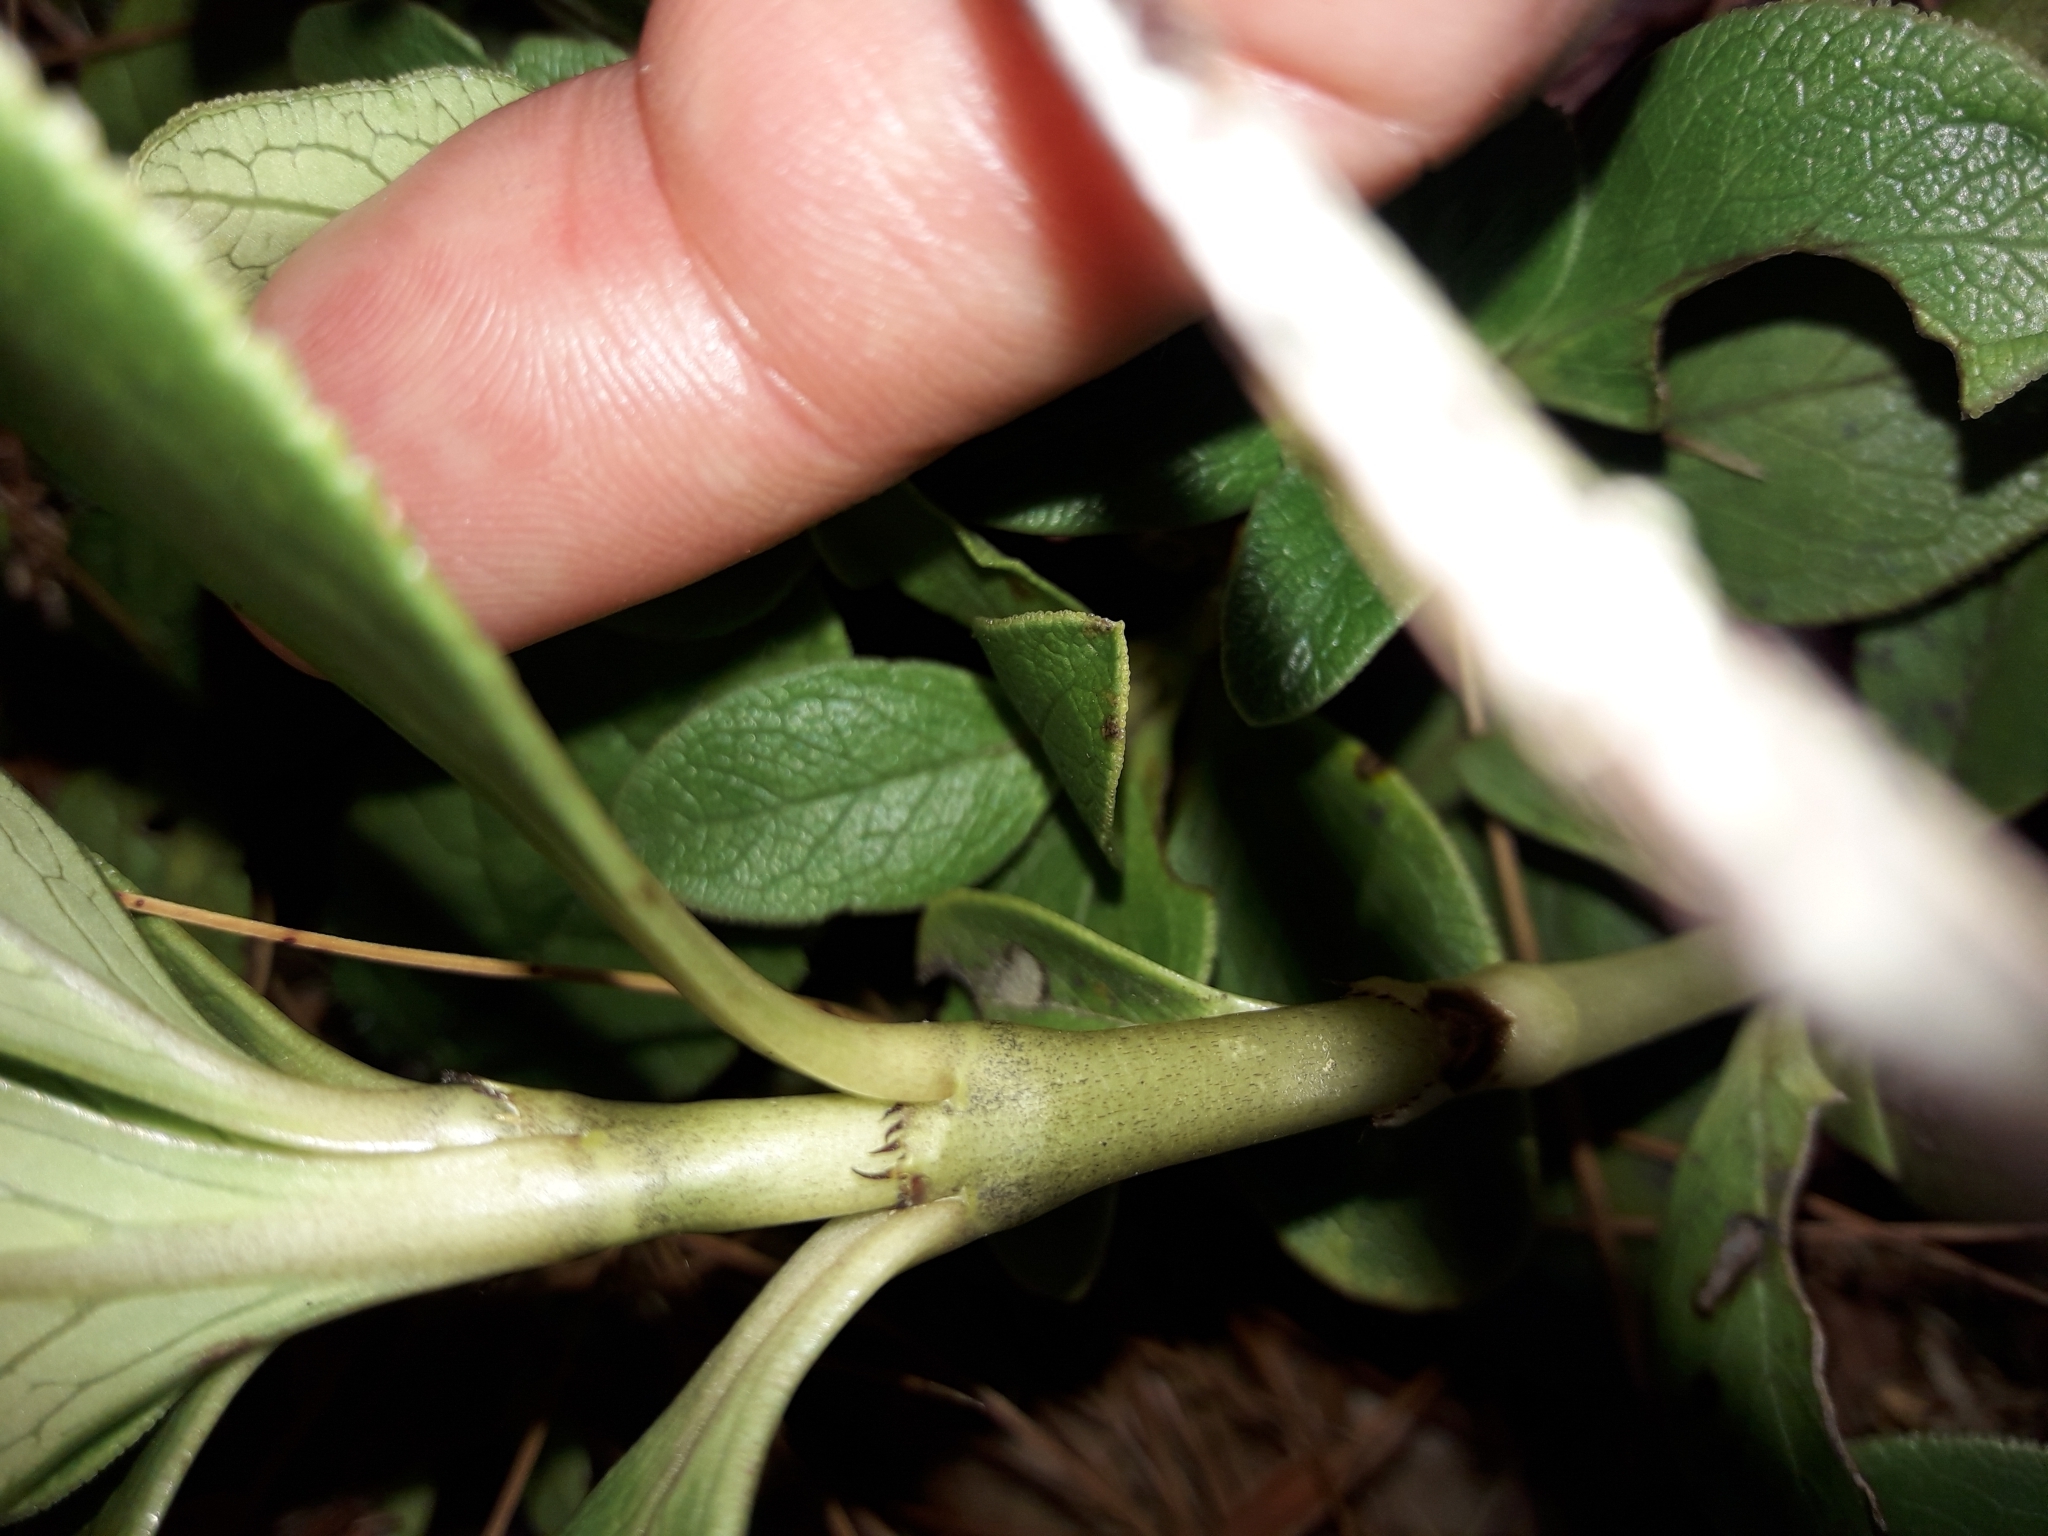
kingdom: Plantae
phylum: Tracheophyta
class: Magnoliopsida
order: Gentianales
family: Rubiaceae
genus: Coprosma
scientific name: Coprosma serrulata
